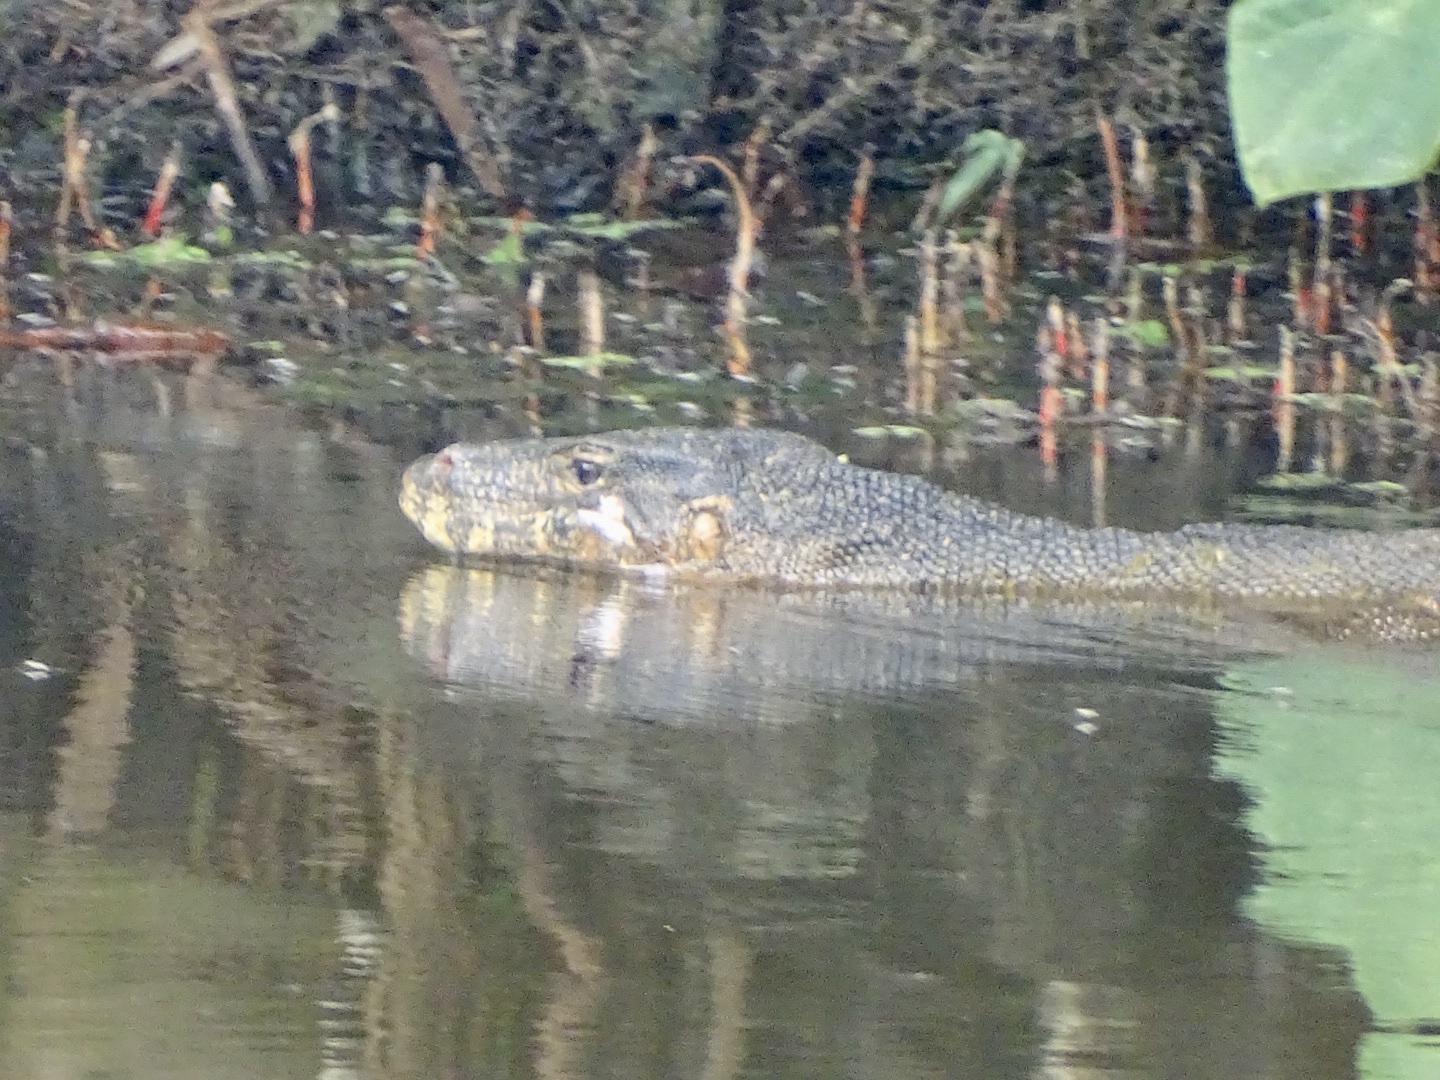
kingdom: Animalia
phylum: Chordata
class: Squamata
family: Varanidae
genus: Varanus
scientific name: Varanus salvator
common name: Common water monitor
